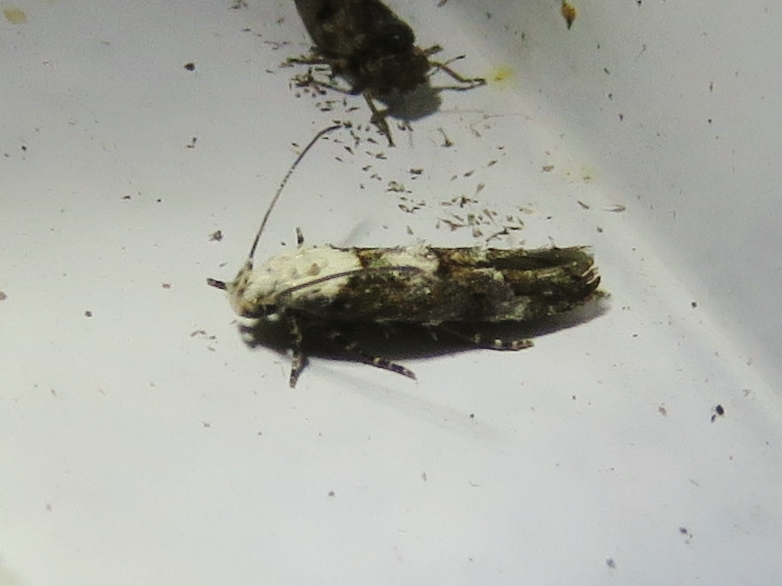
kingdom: Animalia
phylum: Arthropoda
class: Insecta
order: Lepidoptera
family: Momphidae
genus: Mompha
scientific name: Mompha albocapitella
